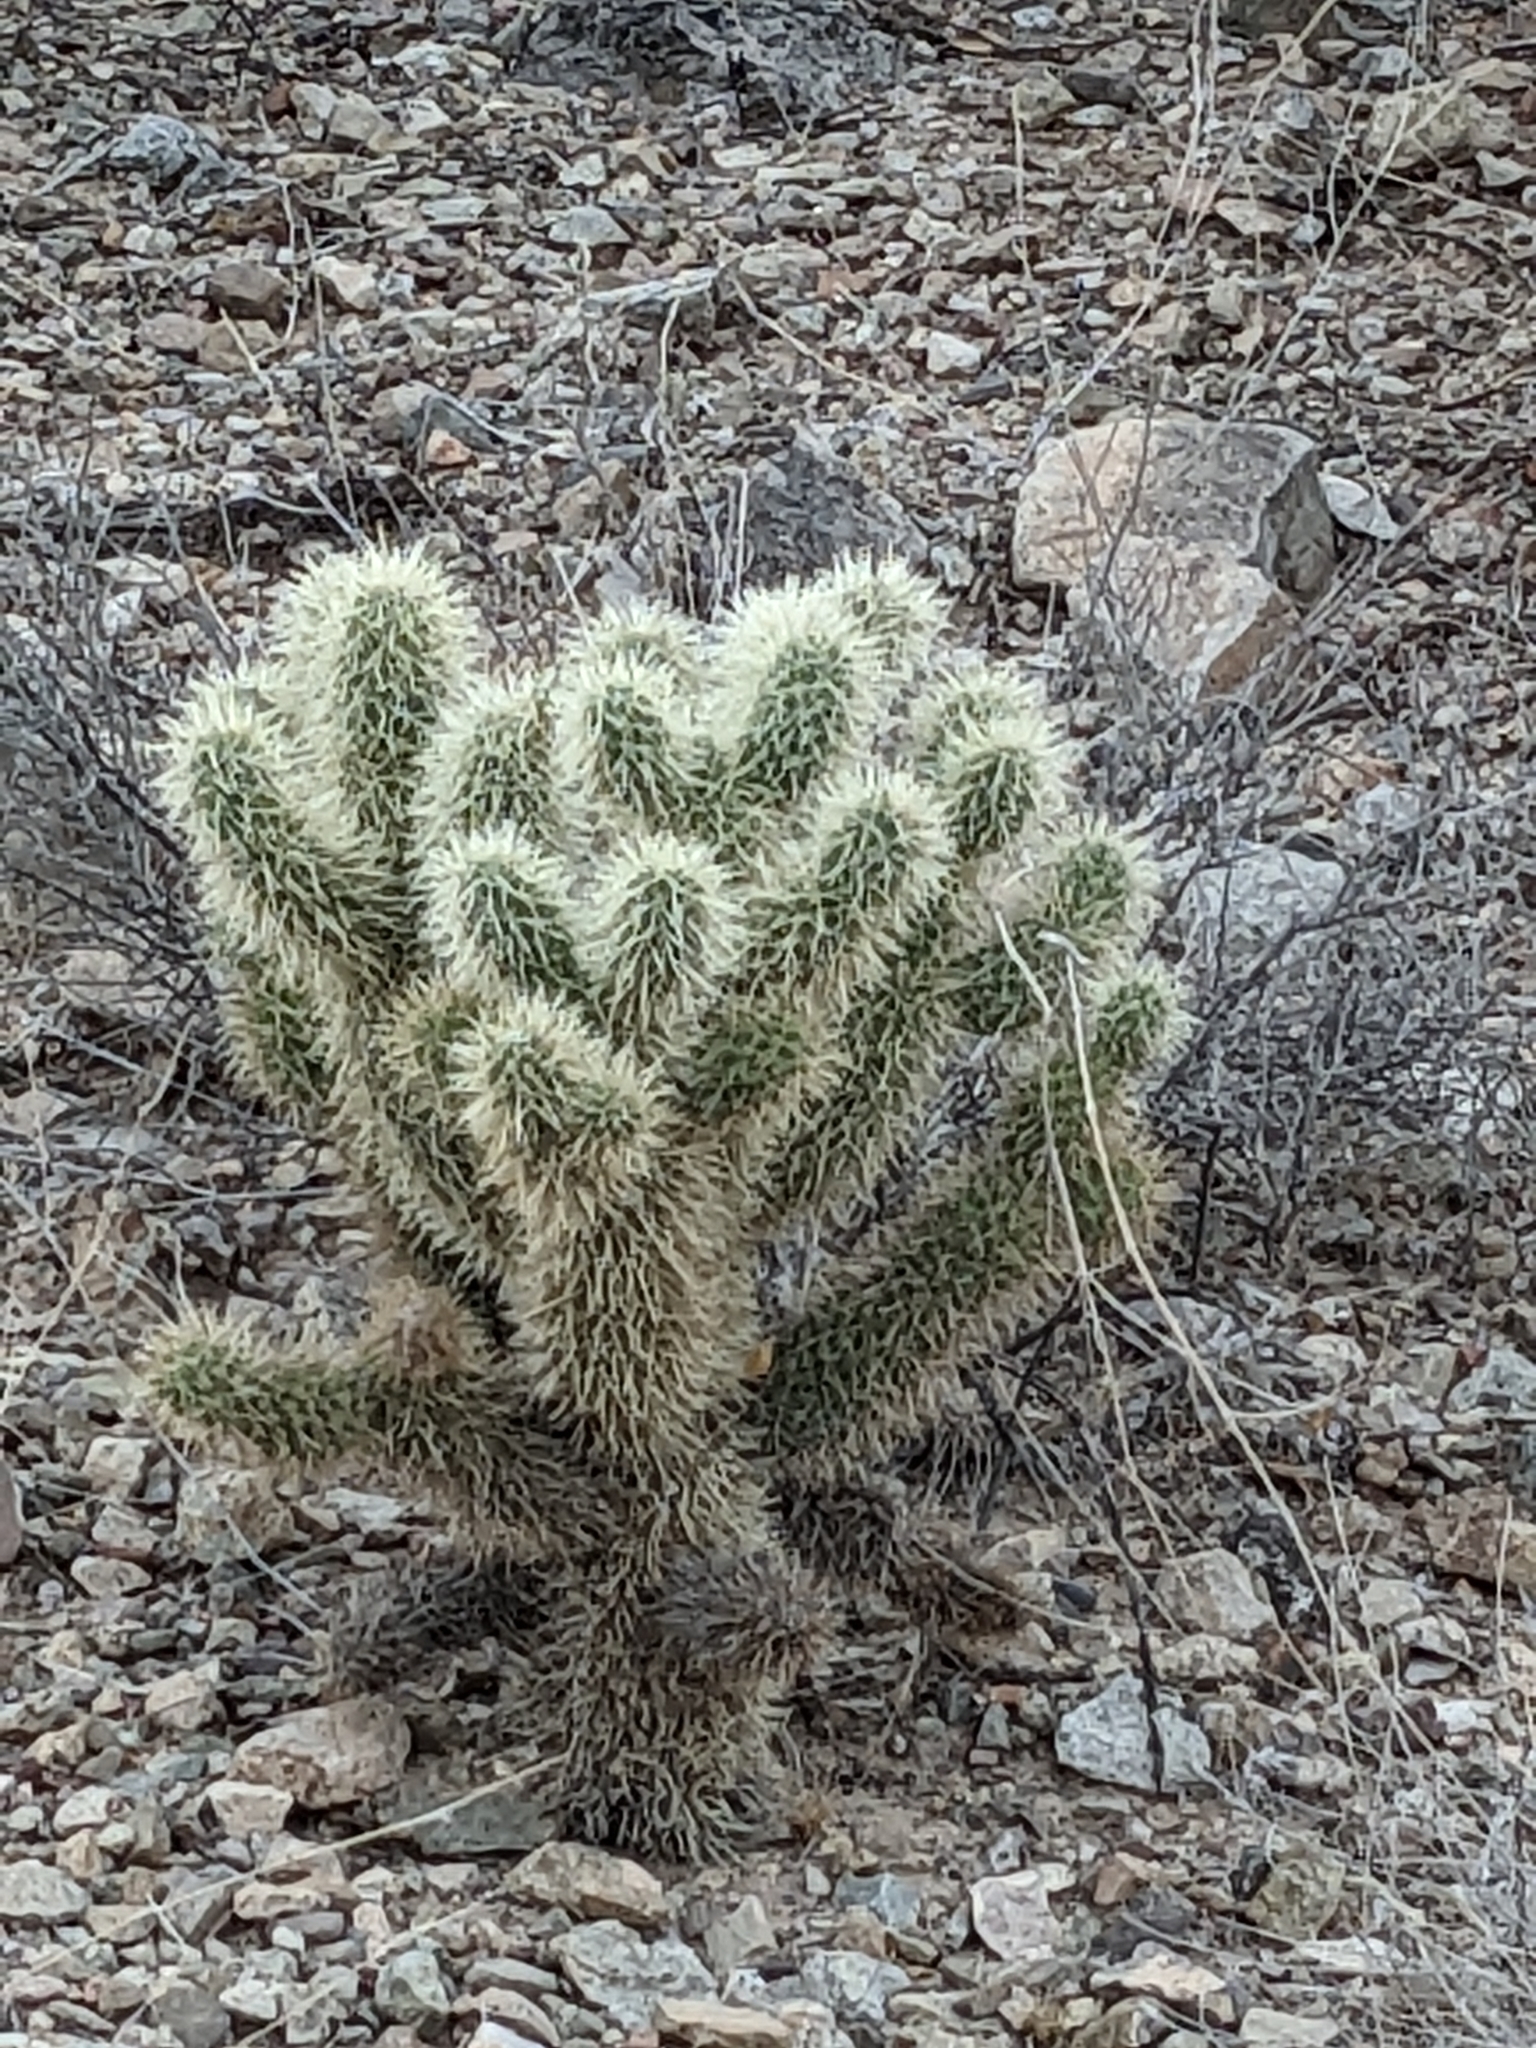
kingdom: Plantae
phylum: Tracheophyta
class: Magnoliopsida
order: Caryophyllales
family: Cactaceae
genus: Cylindropuntia
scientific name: Cylindropuntia fosbergii
